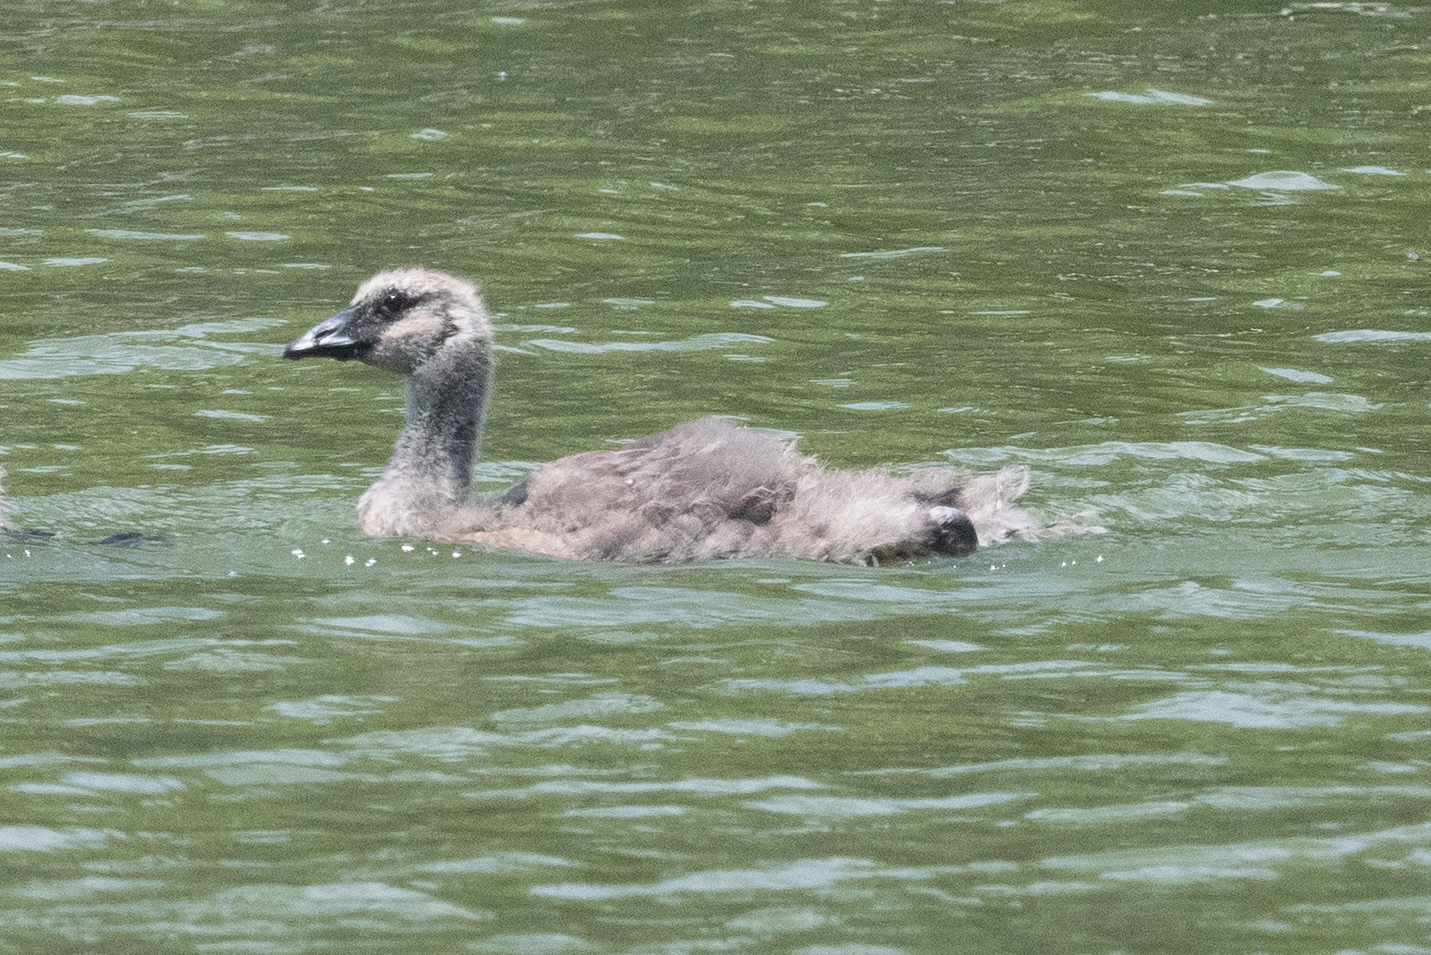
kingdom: Animalia
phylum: Chordata
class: Aves
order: Anseriformes
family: Anatidae
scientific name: Anatidae
